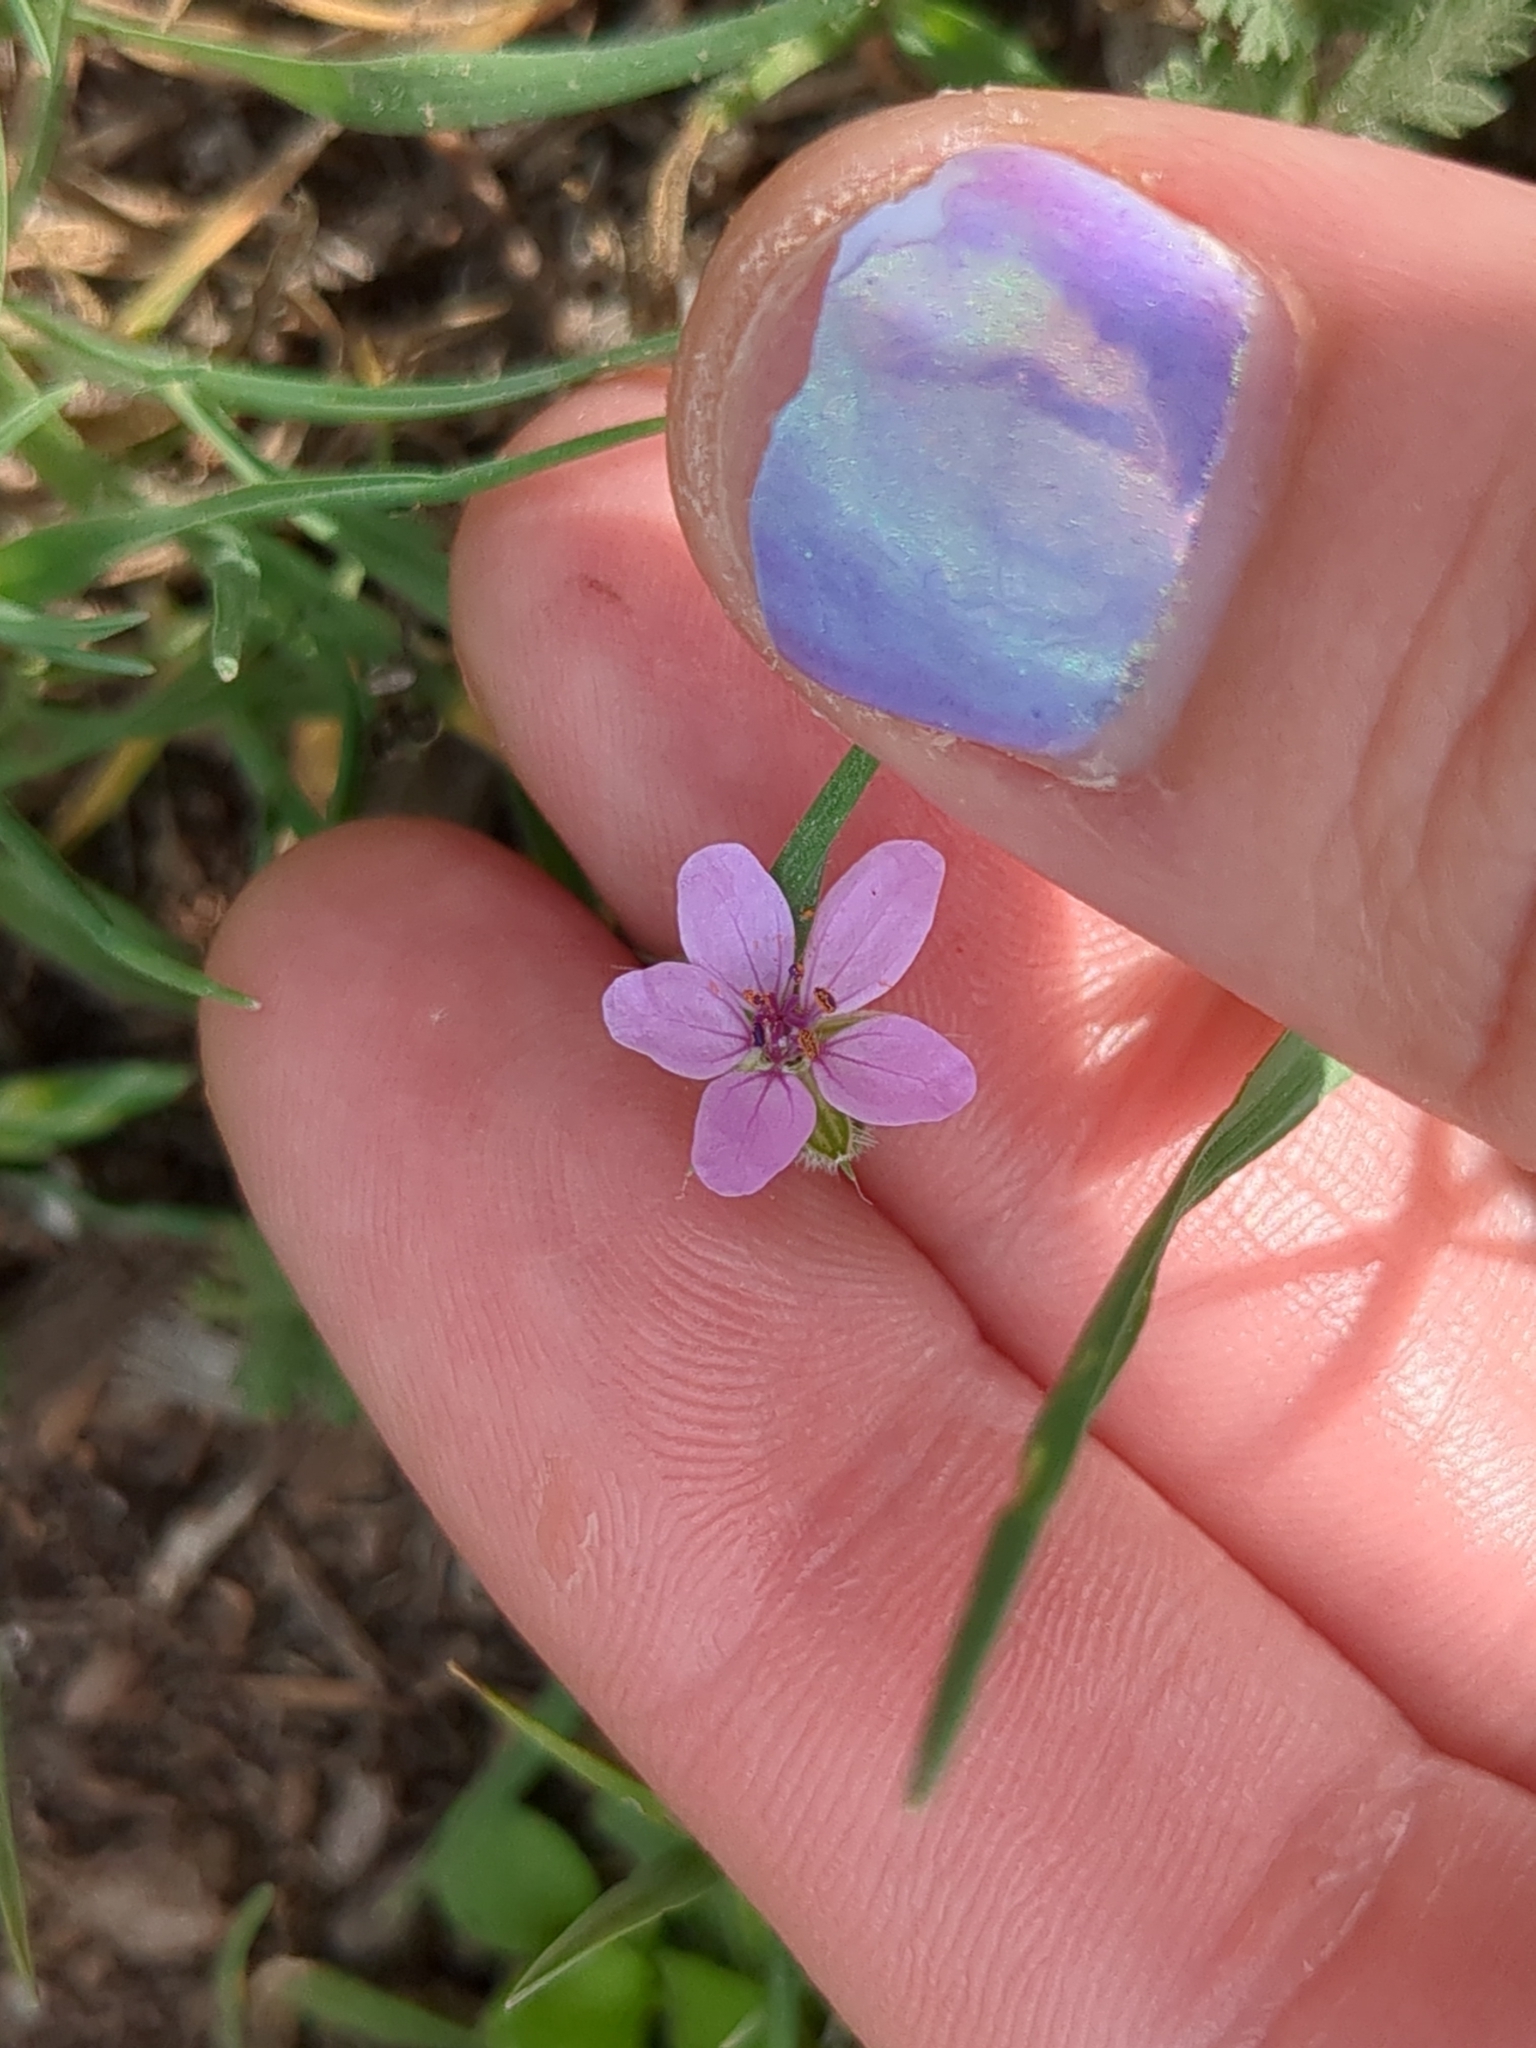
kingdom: Plantae
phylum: Tracheophyta
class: Magnoliopsida
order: Geraniales
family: Geraniaceae
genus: Erodium
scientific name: Erodium cicutarium
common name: Common stork's-bill
